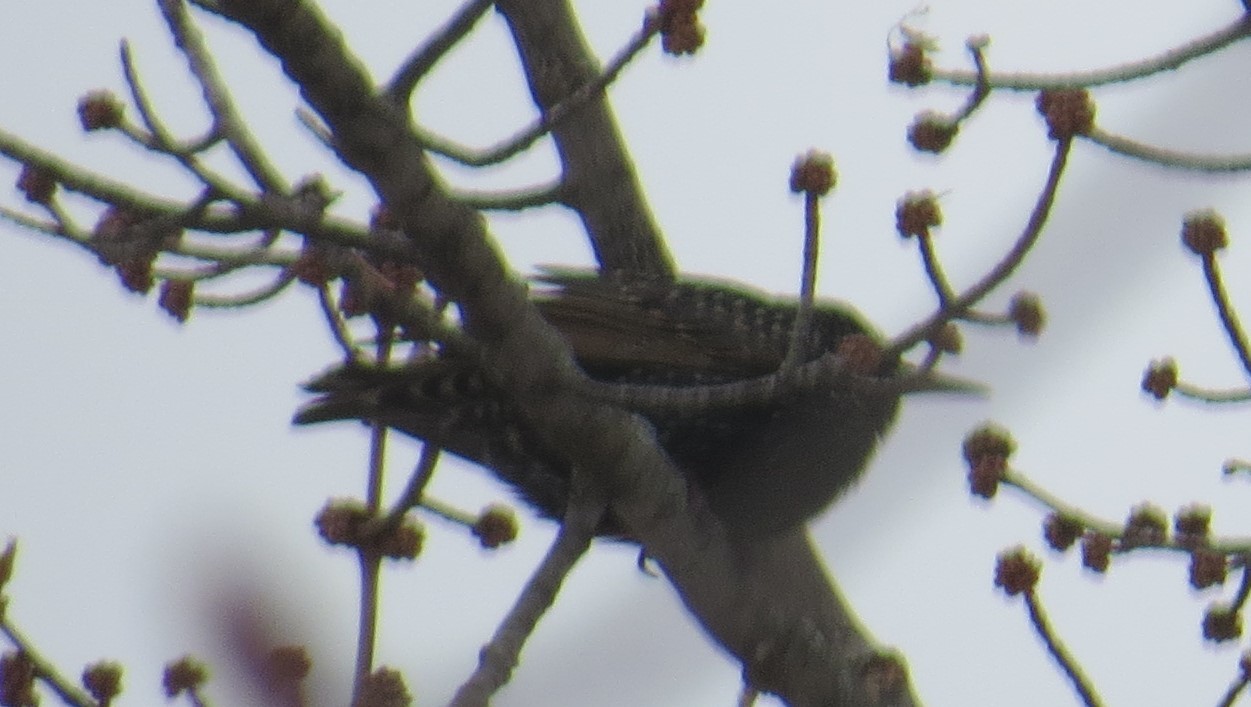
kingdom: Animalia
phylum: Chordata
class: Aves
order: Passeriformes
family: Sturnidae
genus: Sturnus
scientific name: Sturnus vulgaris
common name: Common starling
